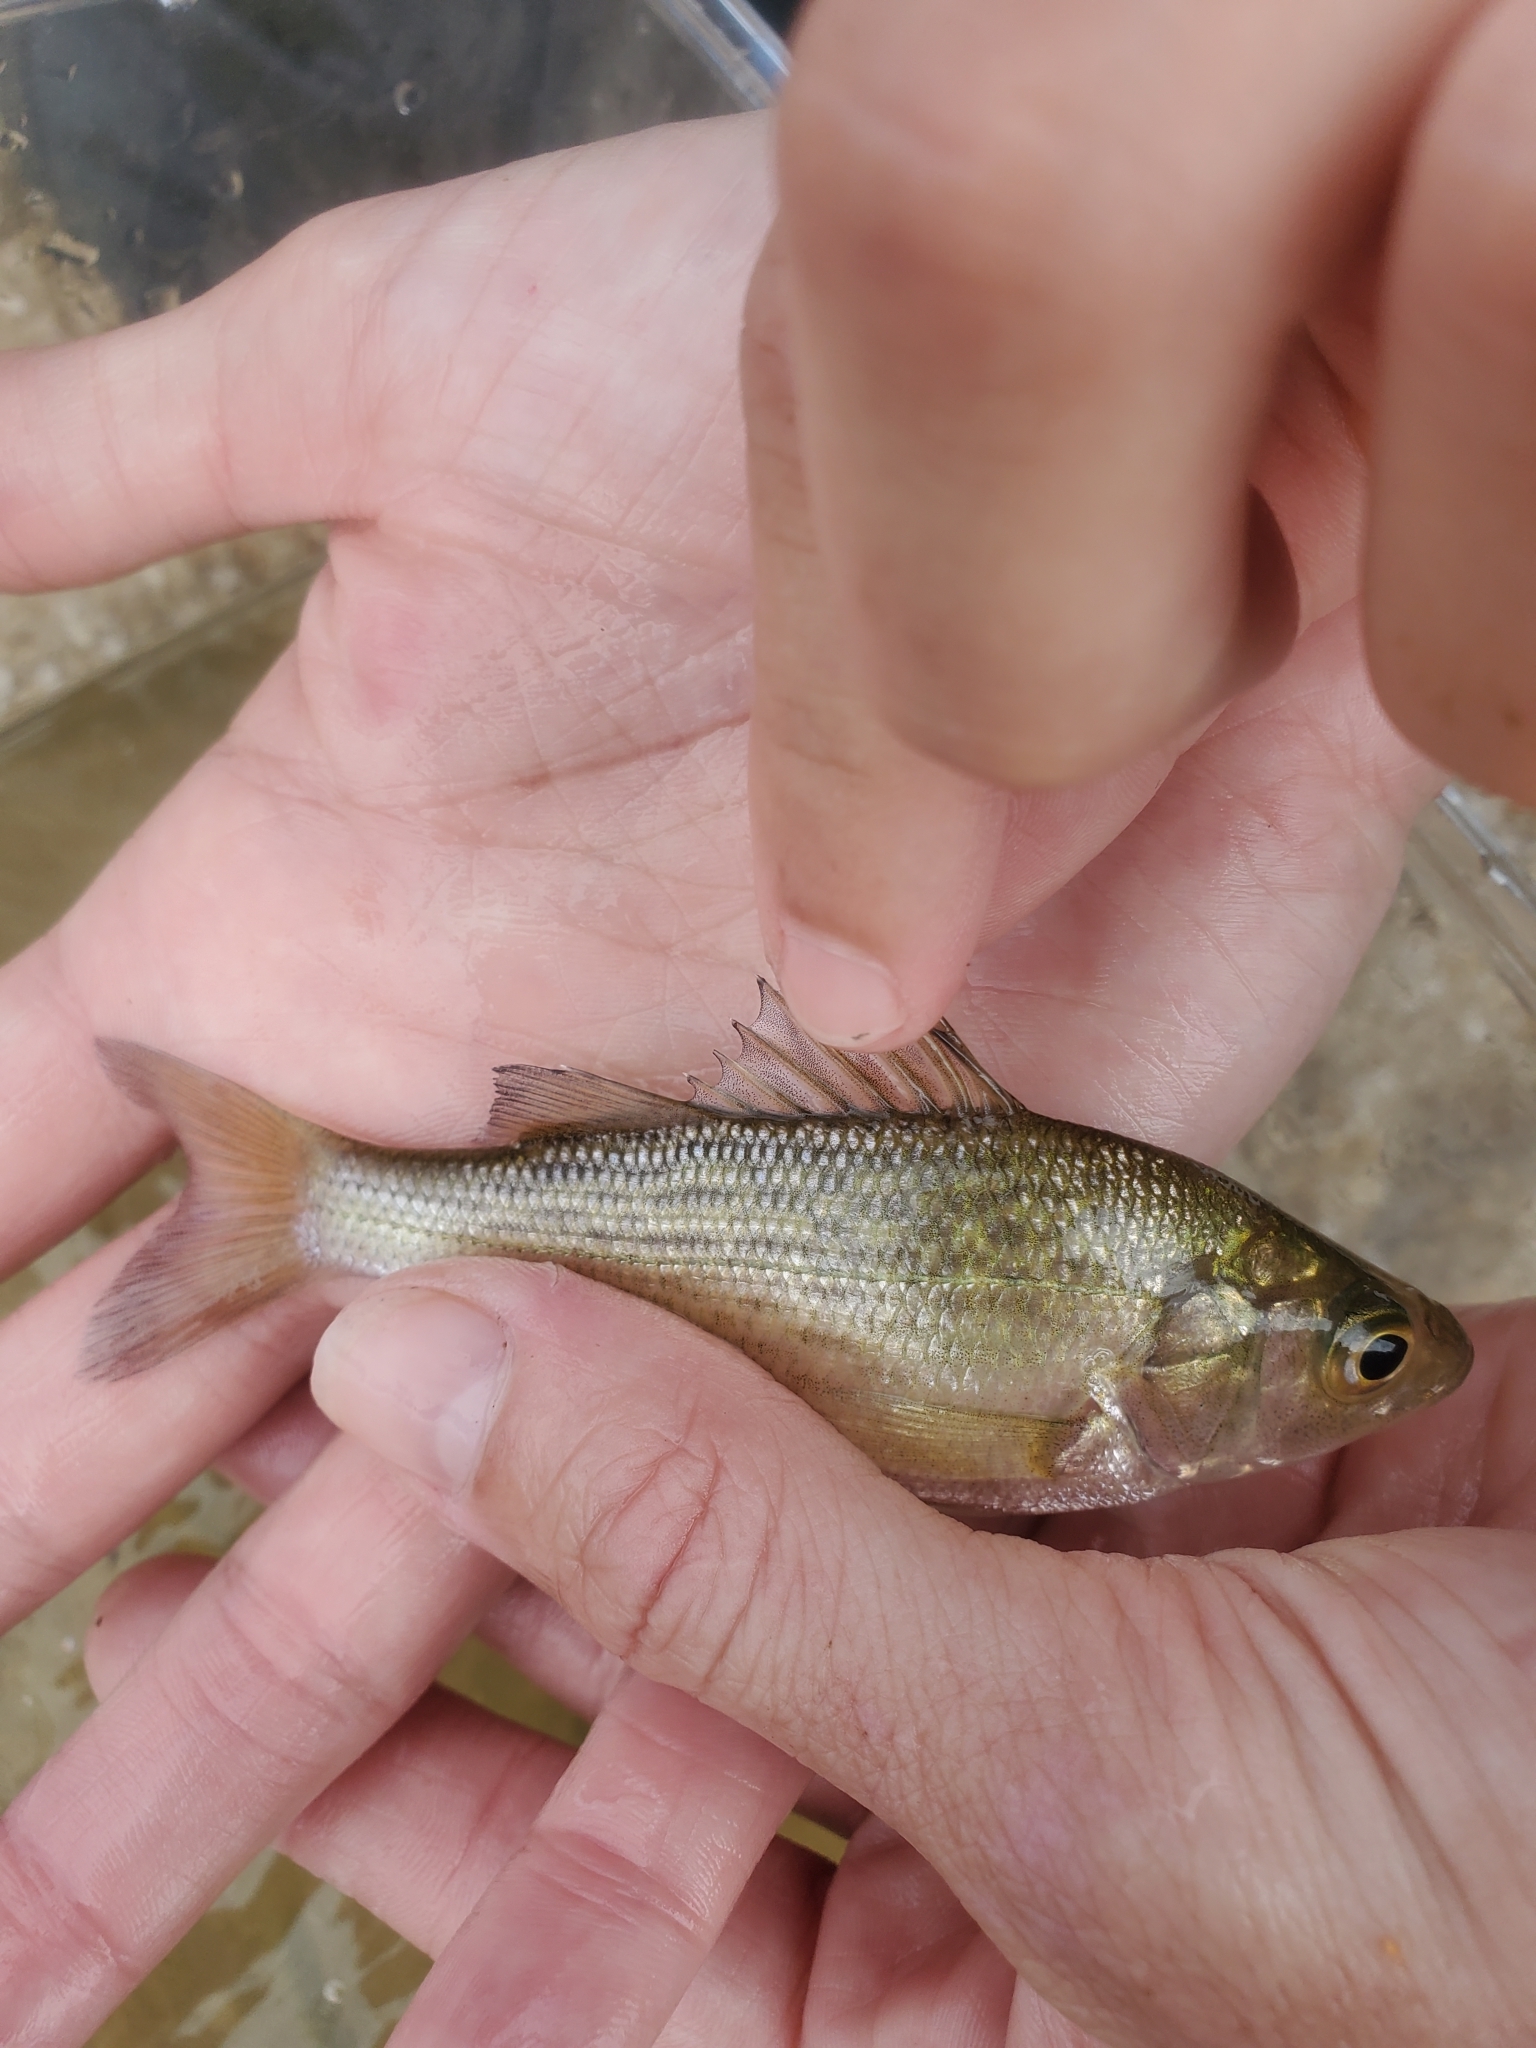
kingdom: Animalia
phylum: Chordata
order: Perciformes
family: Moronidae
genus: Morone
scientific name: Morone americana
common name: White perch
